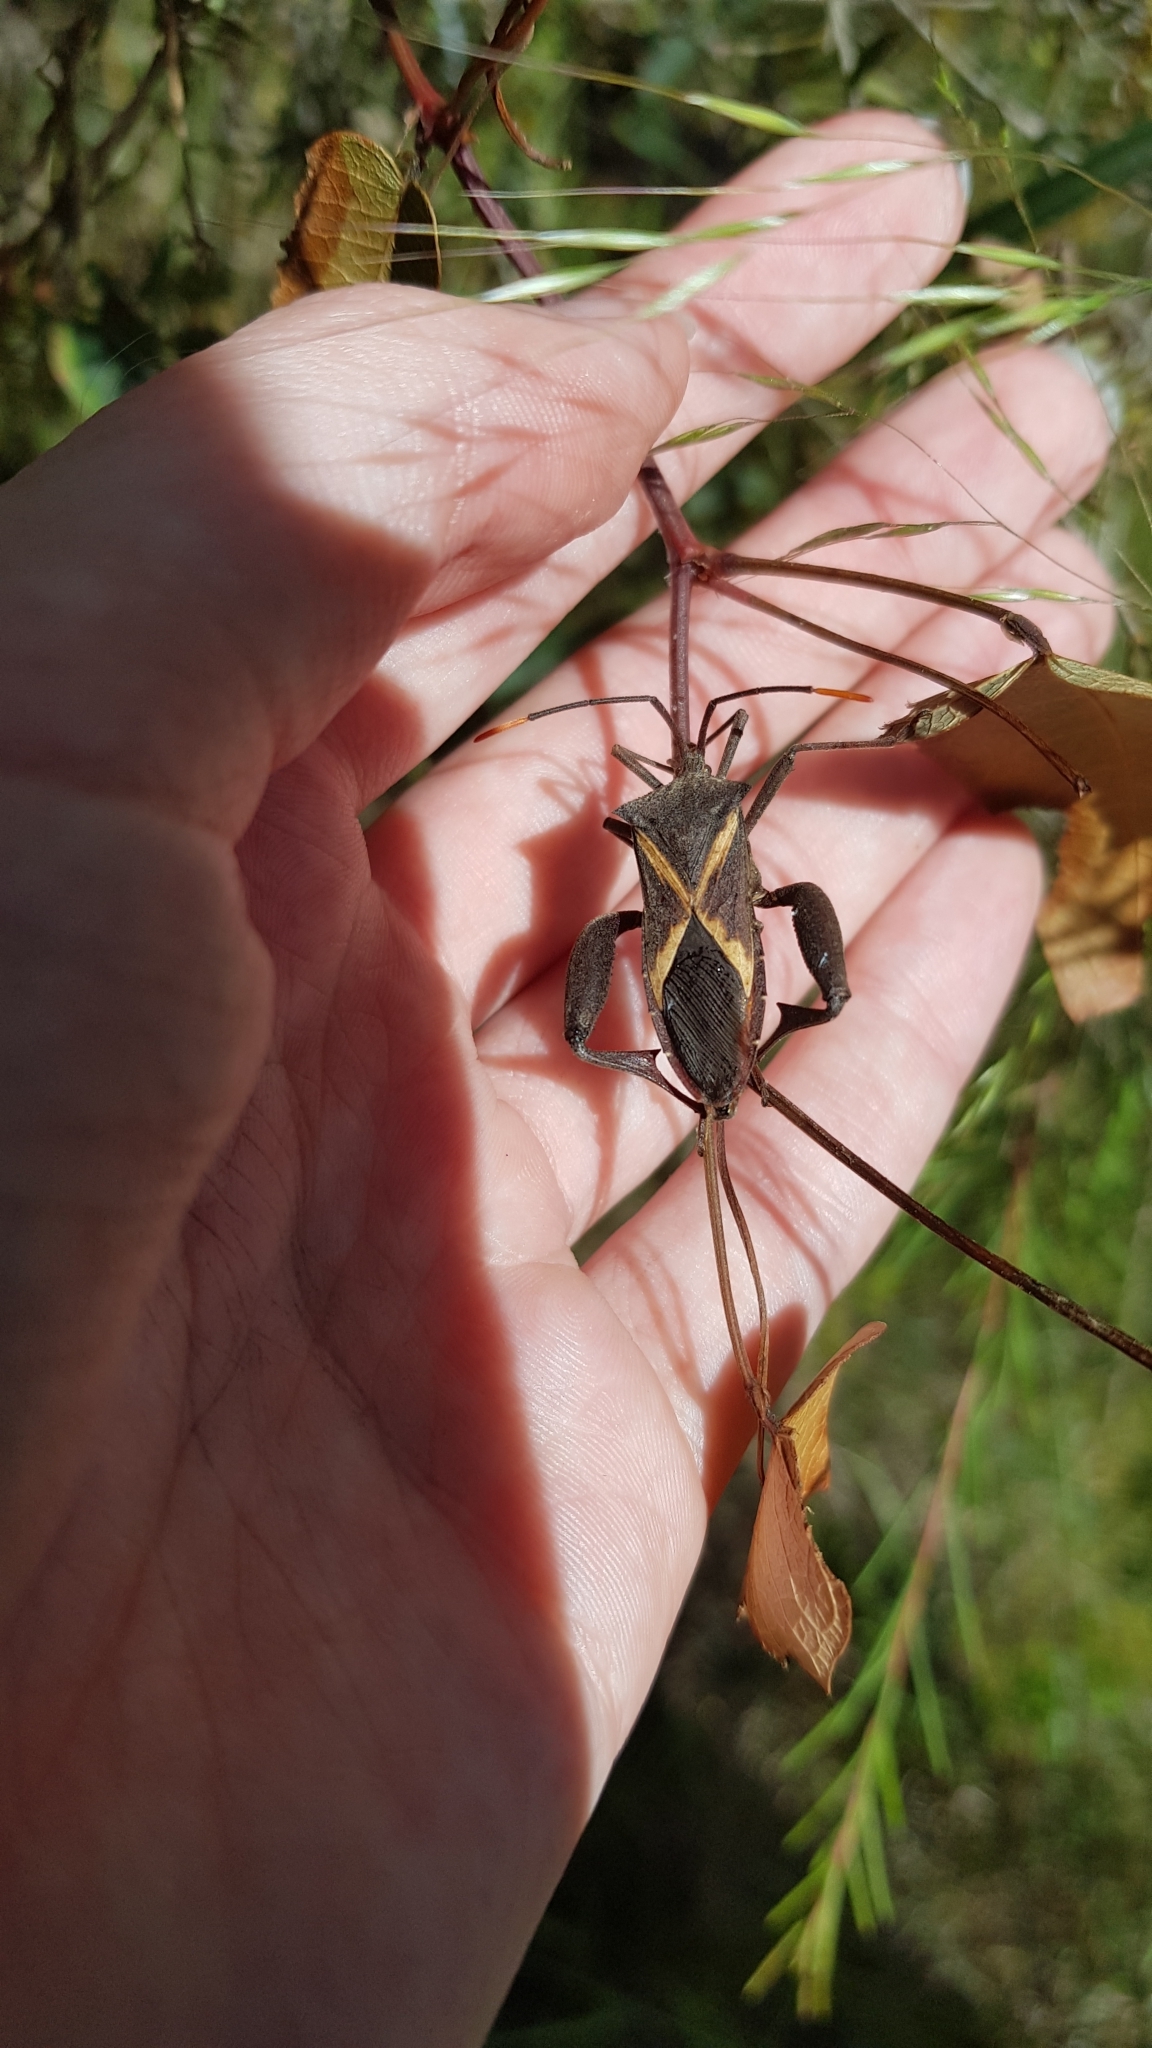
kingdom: Animalia
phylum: Arthropoda
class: Insecta
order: Hemiptera
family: Coreidae
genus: Mictis
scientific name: Mictis profana
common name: Crusader bug
